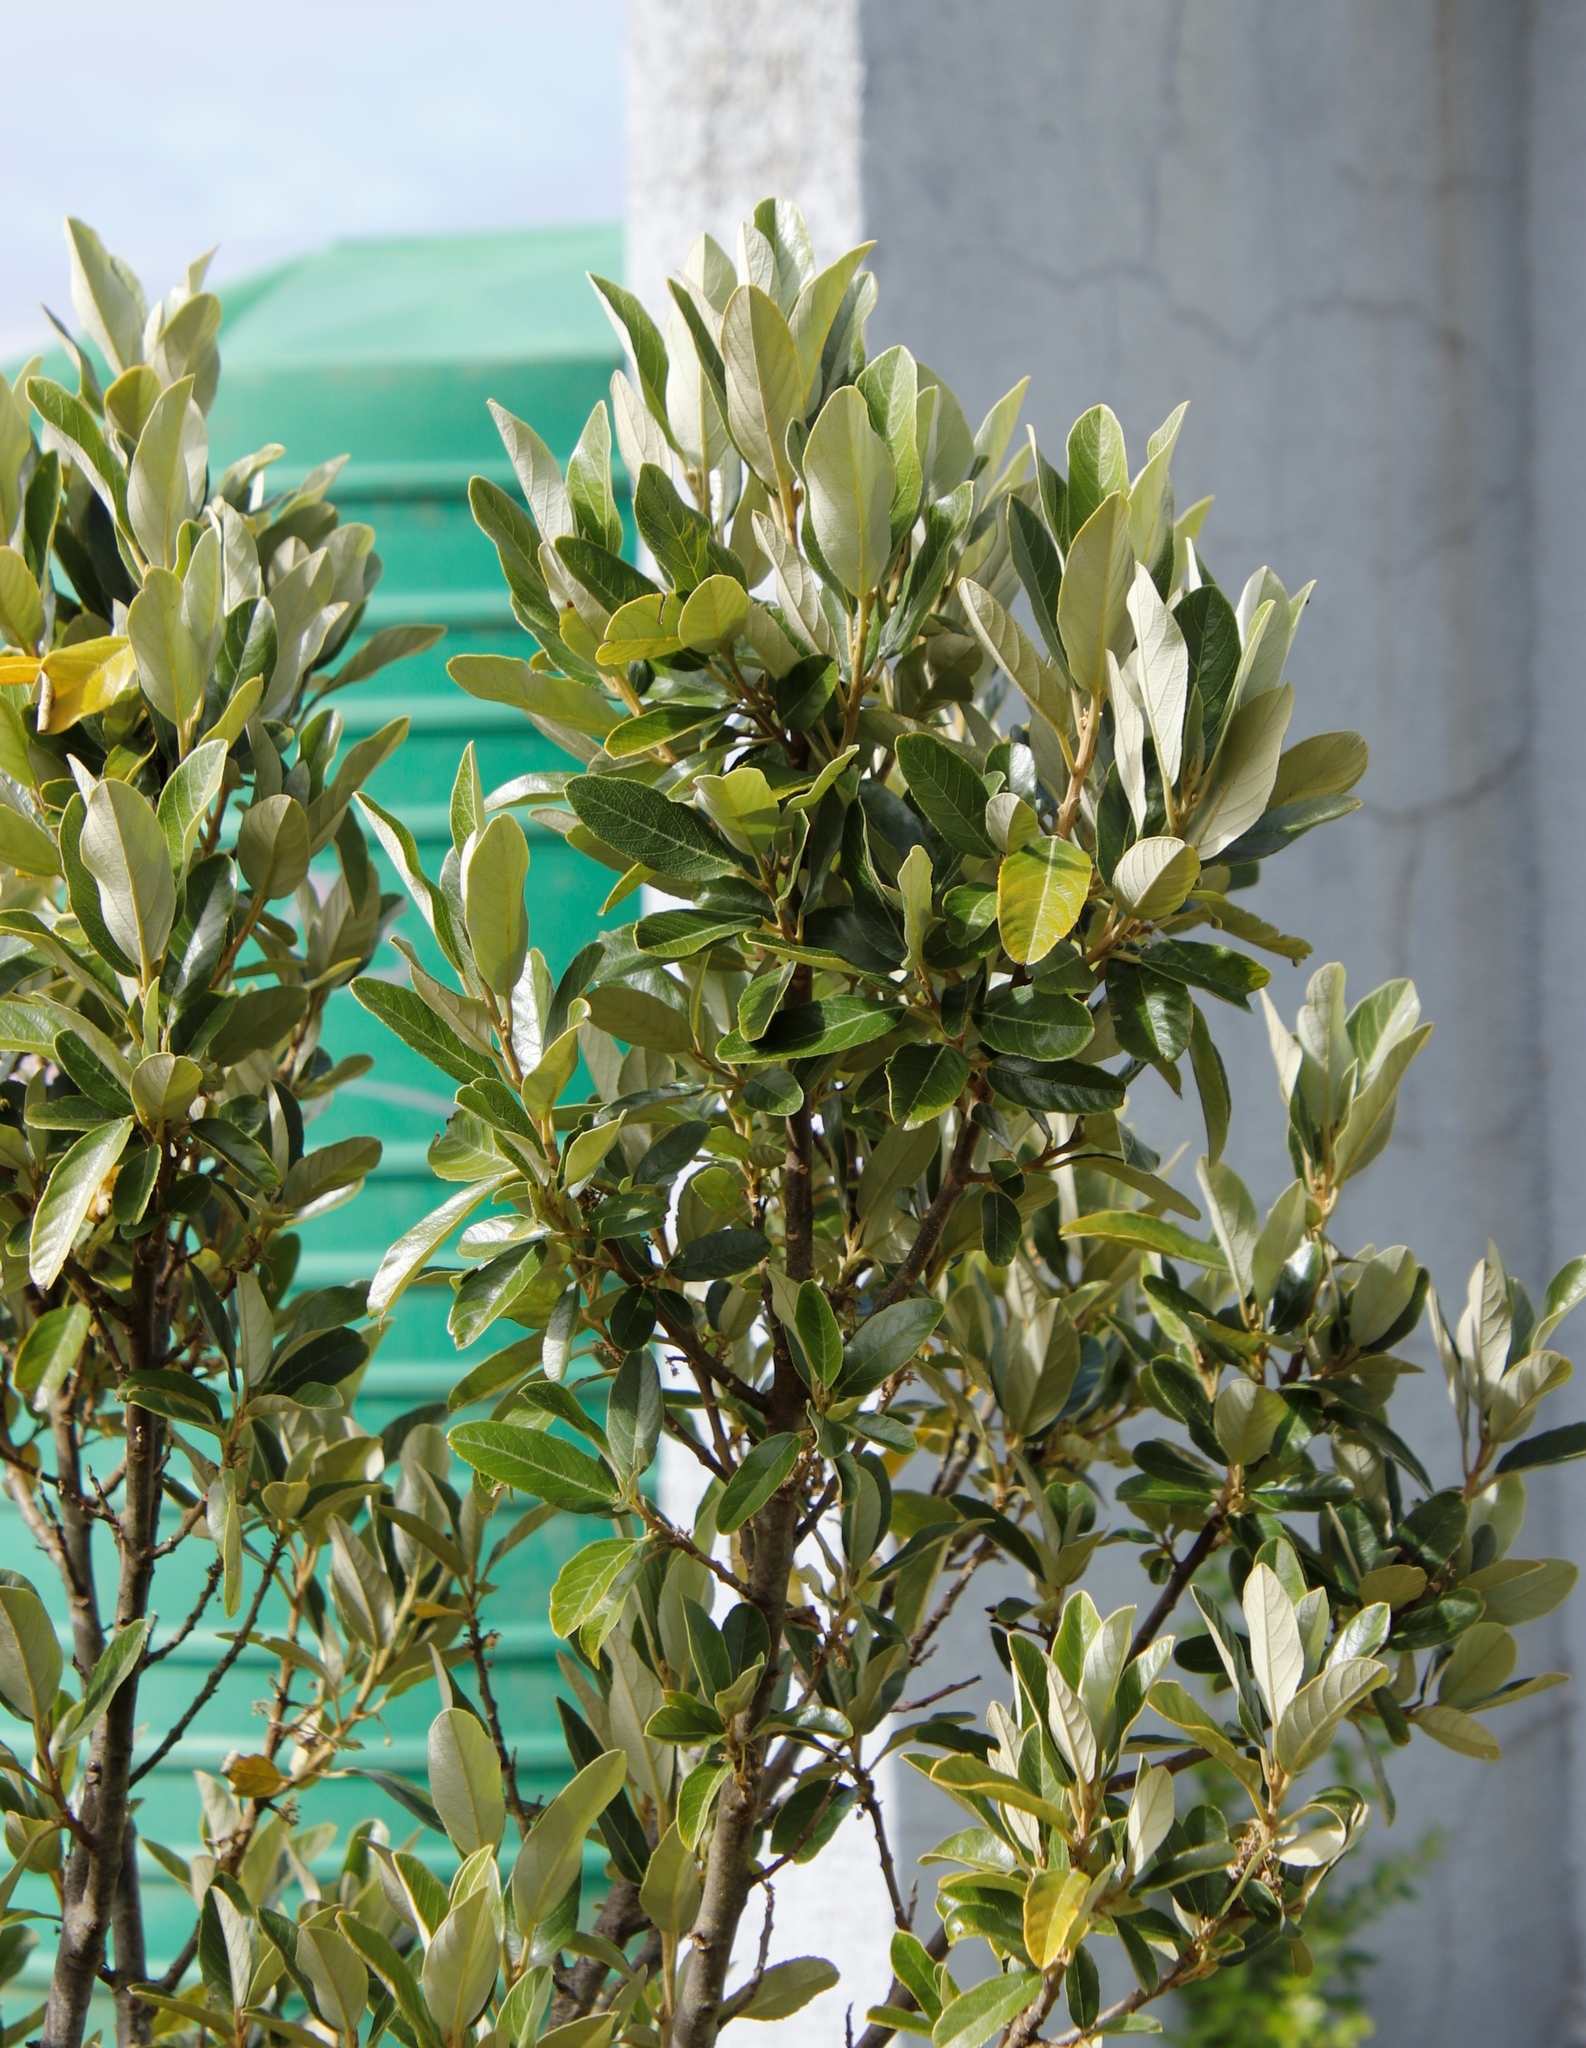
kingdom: Plantae
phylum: Tracheophyta
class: Magnoliopsida
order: Malpighiales
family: Achariaceae
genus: Kiggelaria
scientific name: Kiggelaria africana
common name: Wild peach
